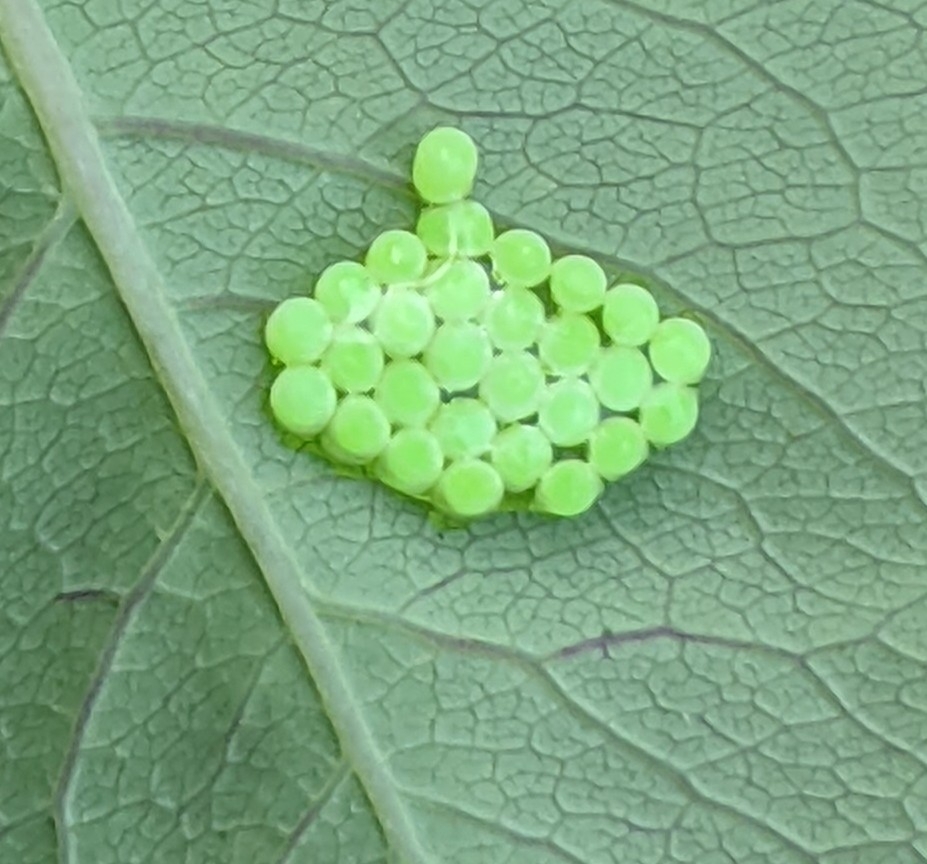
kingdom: Animalia
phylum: Arthropoda
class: Insecta
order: Hemiptera
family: Pentatomidae
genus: Palomena
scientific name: Palomena prasina
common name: Green shieldbug
